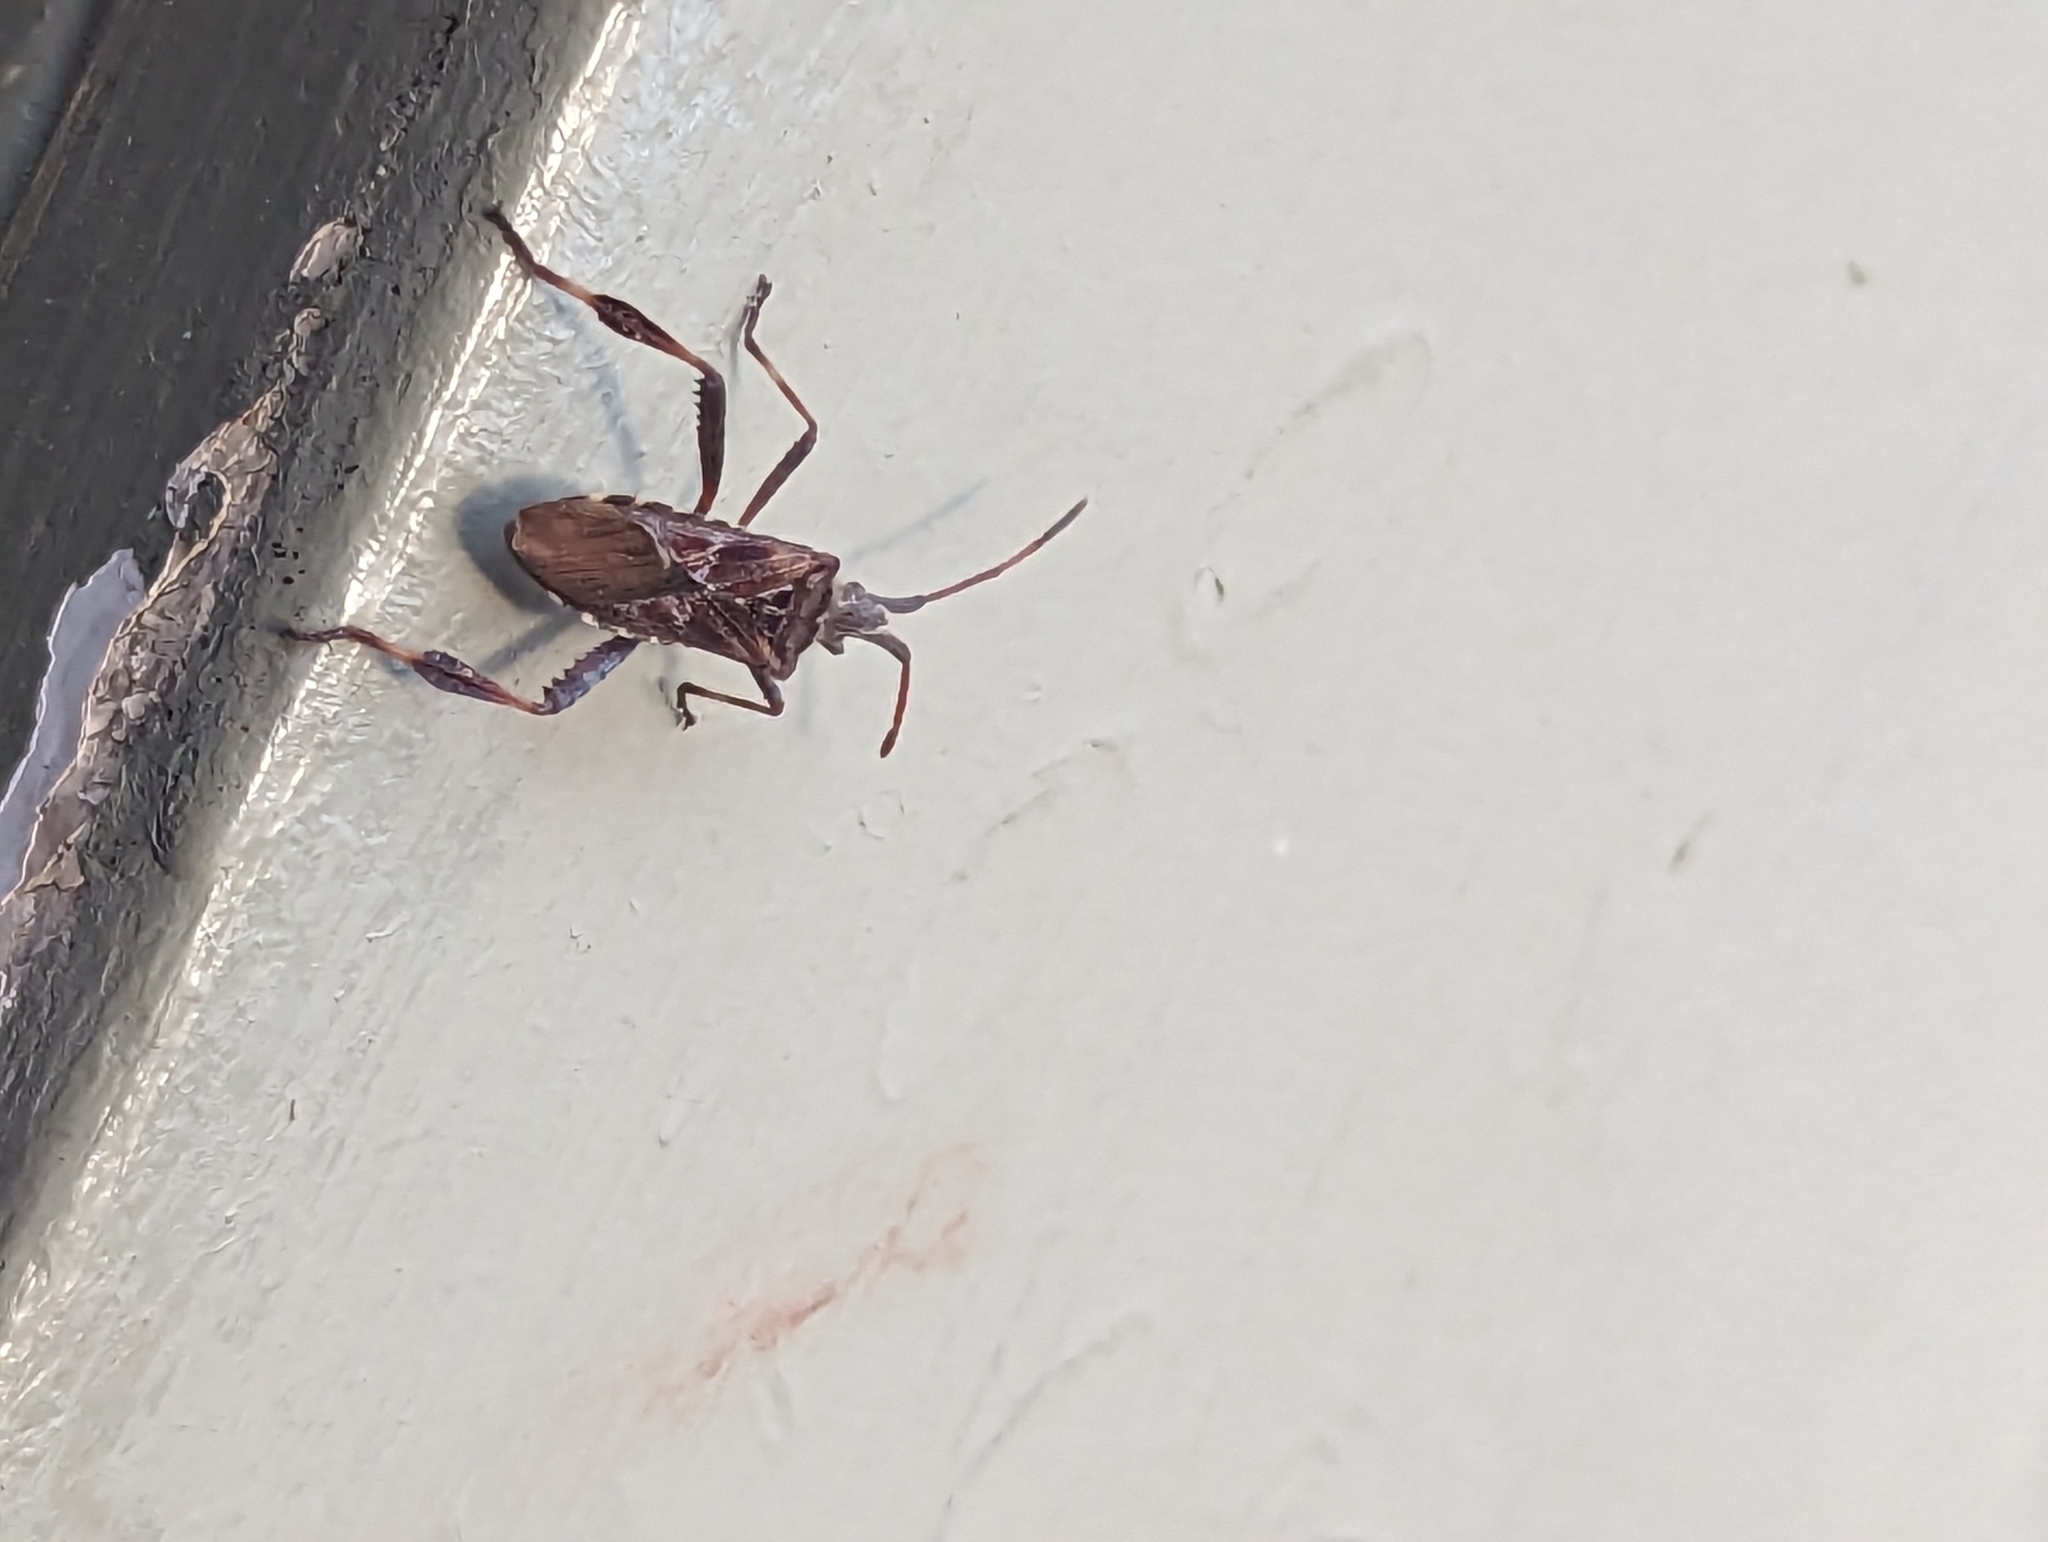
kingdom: Animalia
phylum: Arthropoda
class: Insecta
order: Hemiptera
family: Coreidae
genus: Leptoglossus
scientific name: Leptoglossus occidentalis
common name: Western conifer-seed bug
